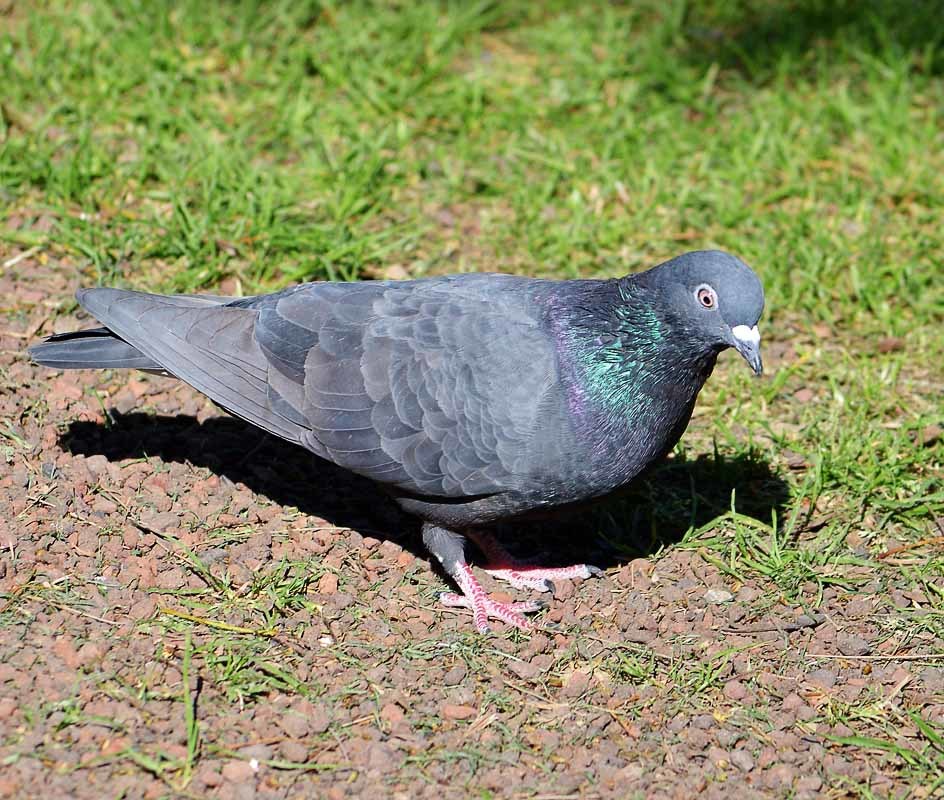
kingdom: Animalia
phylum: Chordata
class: Aves
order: Columbiformes
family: Columbidae
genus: Columba
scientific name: Columba livia
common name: Rock pigeon
